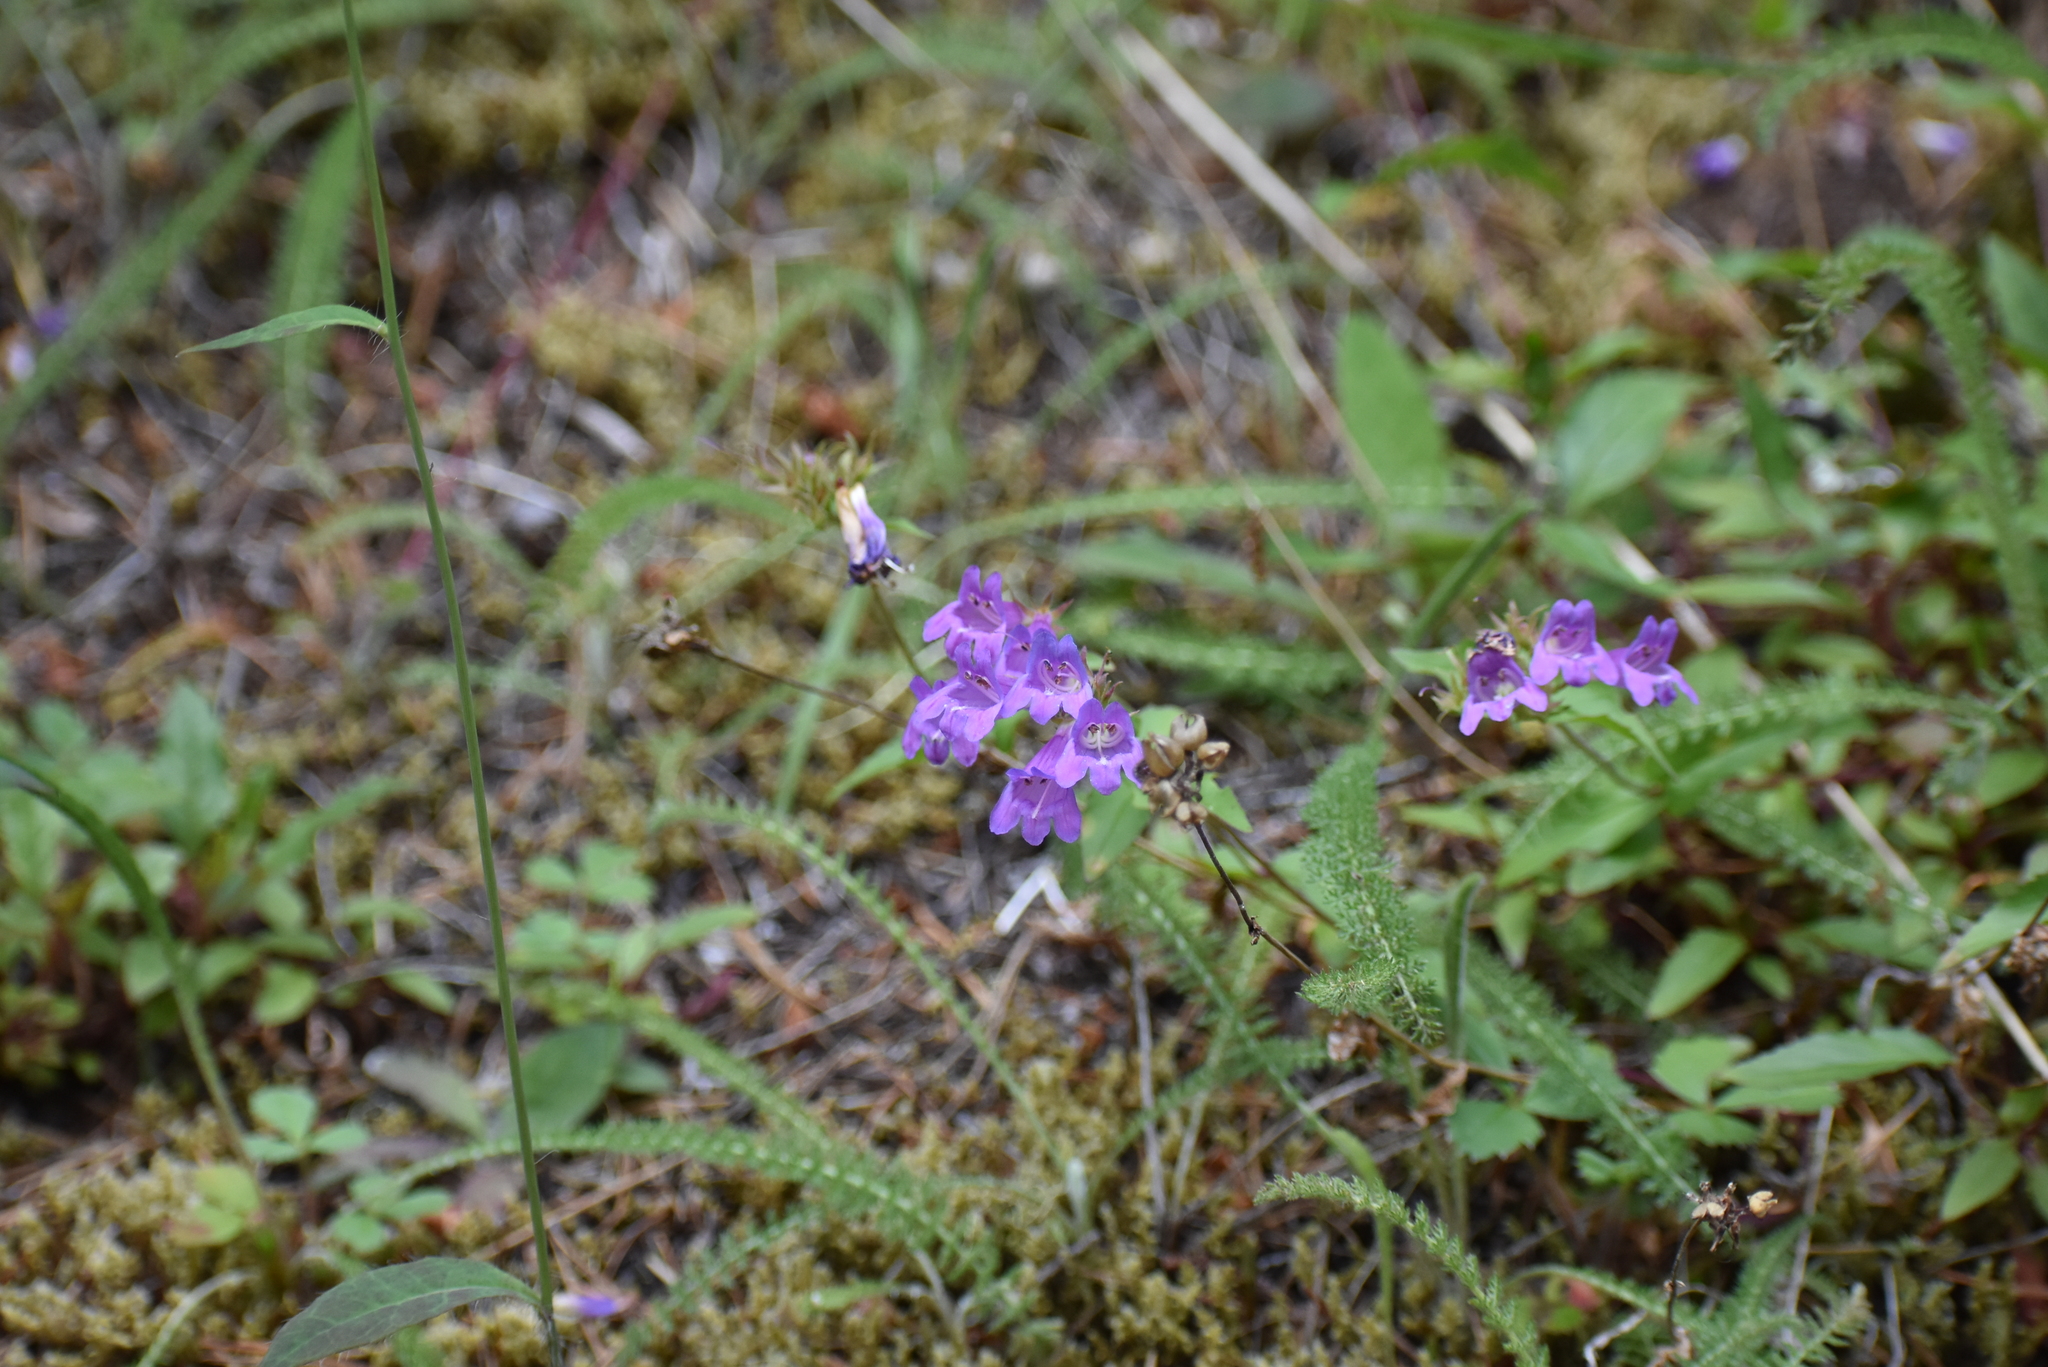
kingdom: Plantae
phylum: Tracheophyta
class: Magnoliopsida
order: Lamiales
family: Plantaginaceae
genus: Penstemon
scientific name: Penstemon serrulatus
